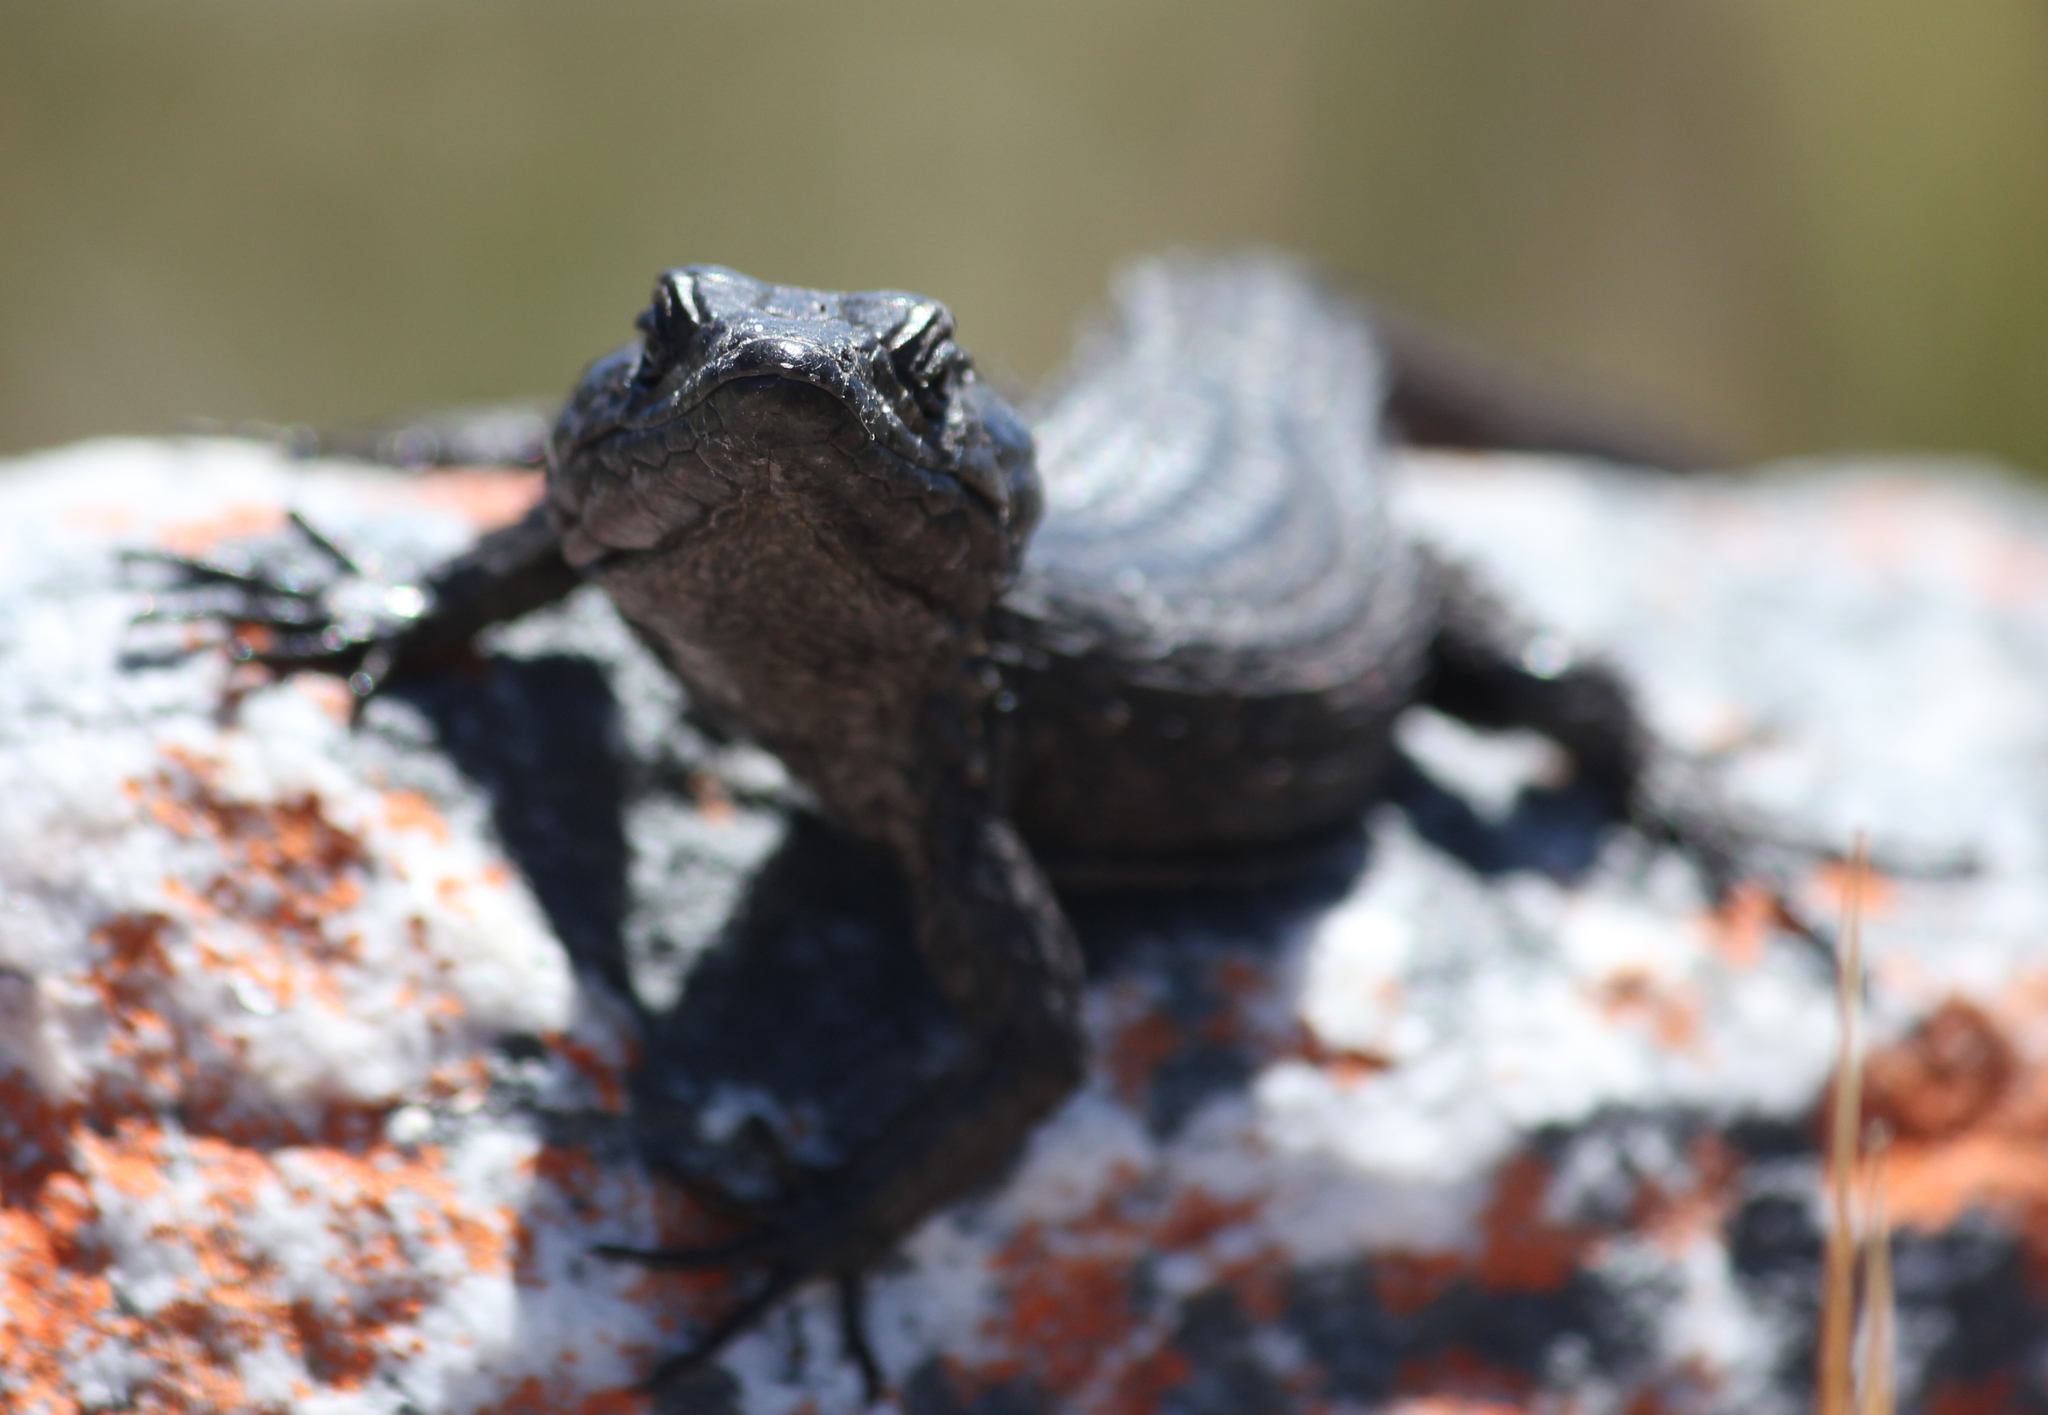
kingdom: Animalia
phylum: Chordata
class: Squamata
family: Cordylidae
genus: Cordylus
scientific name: Cordylus niger
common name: Black girdled lizard
